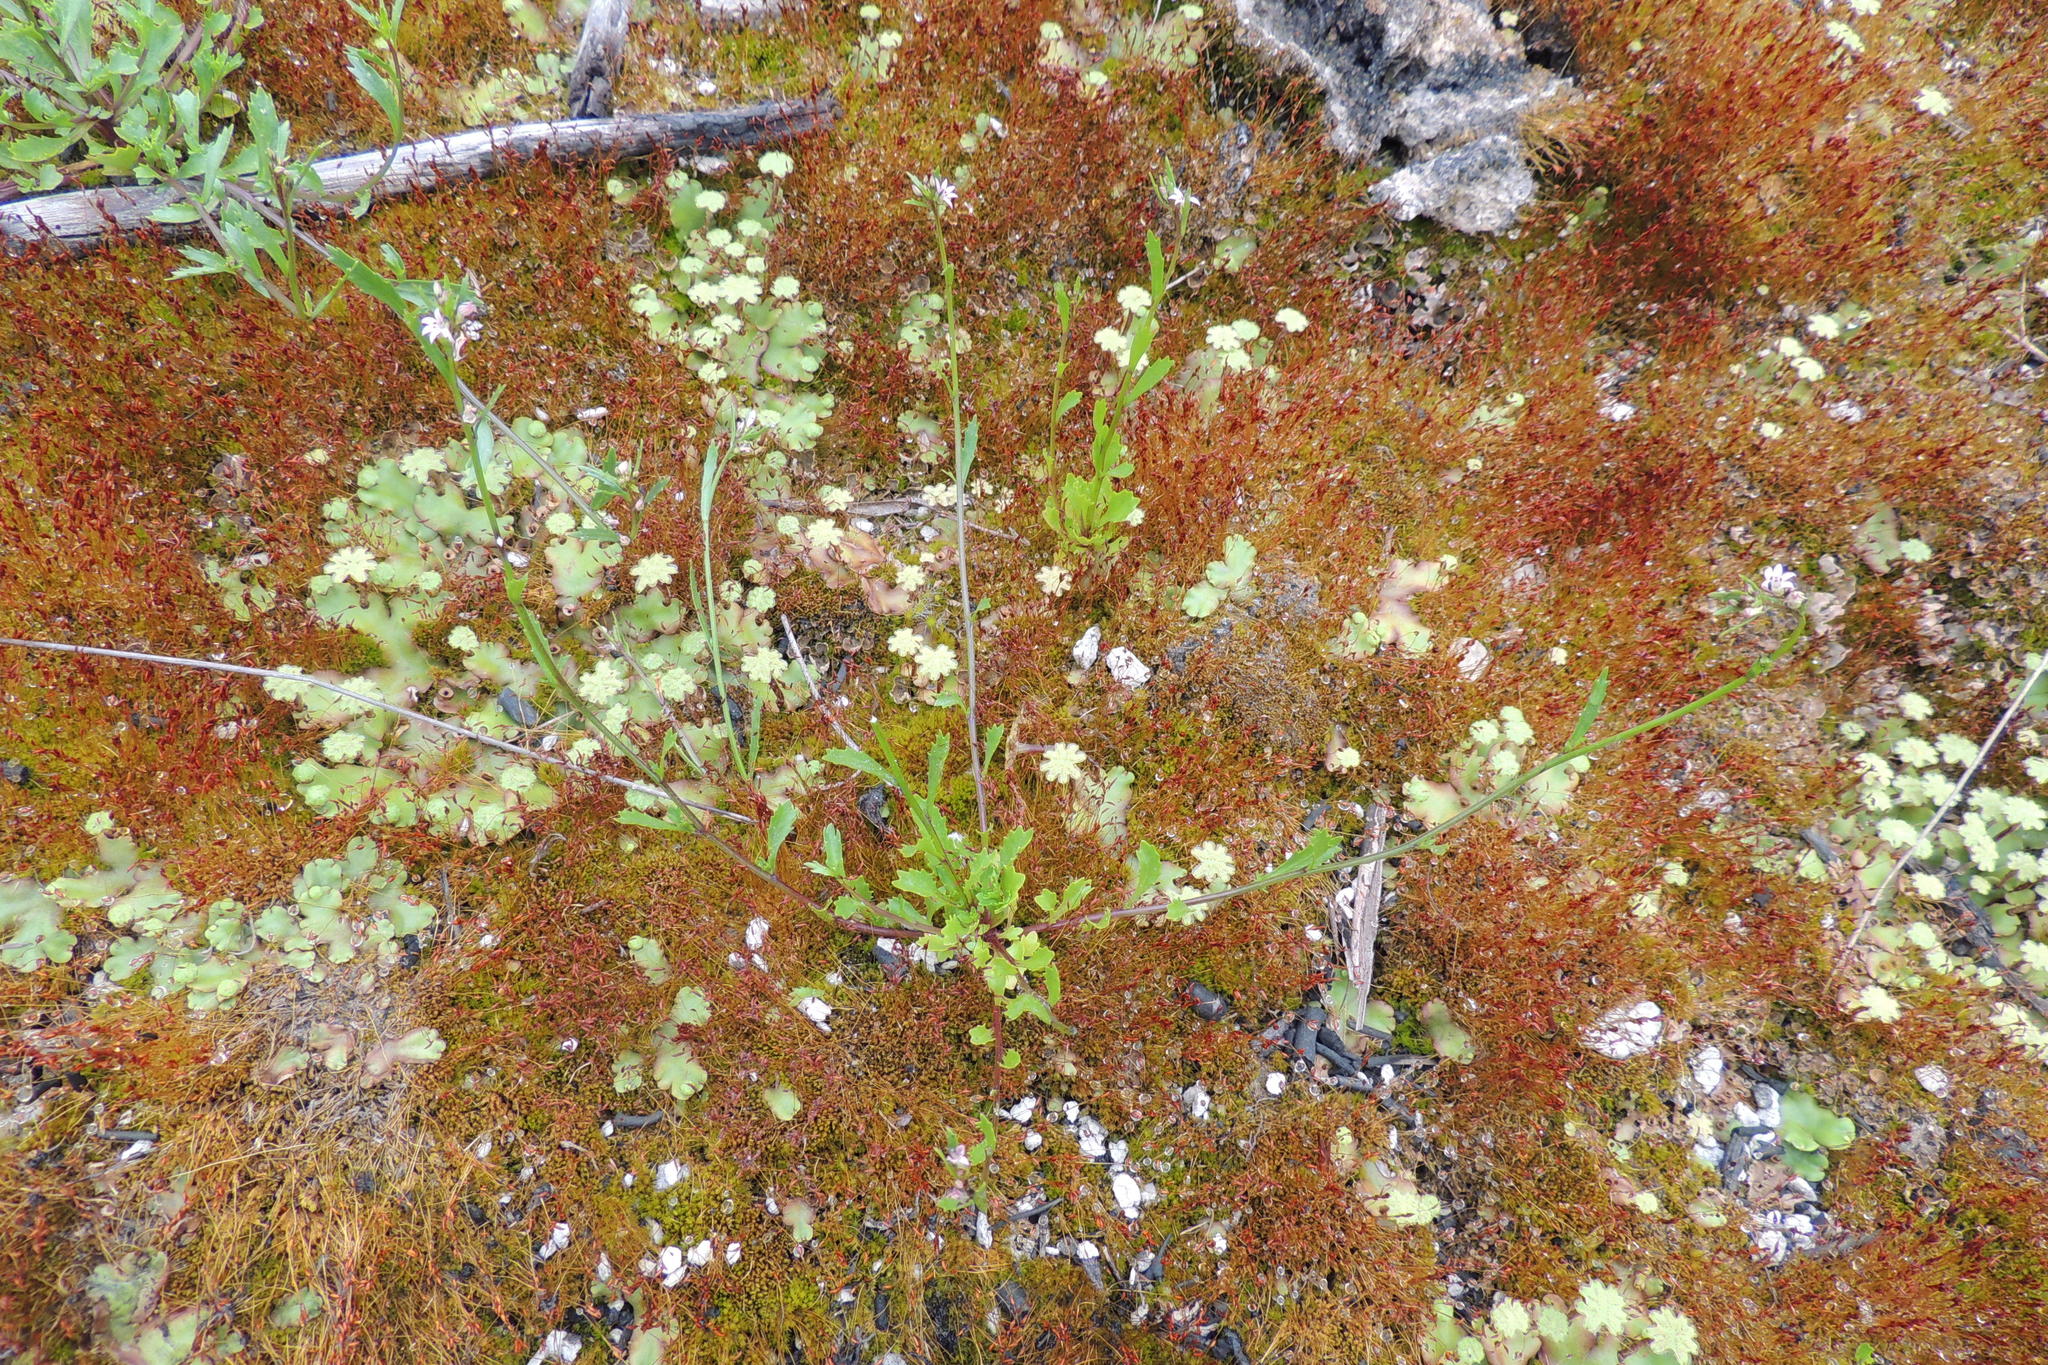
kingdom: Plantae
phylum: Tracheophyta
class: Magnoliopsida
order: Asterales
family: Campanulaceae
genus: Lobelia
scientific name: Lobelia jasionoides
